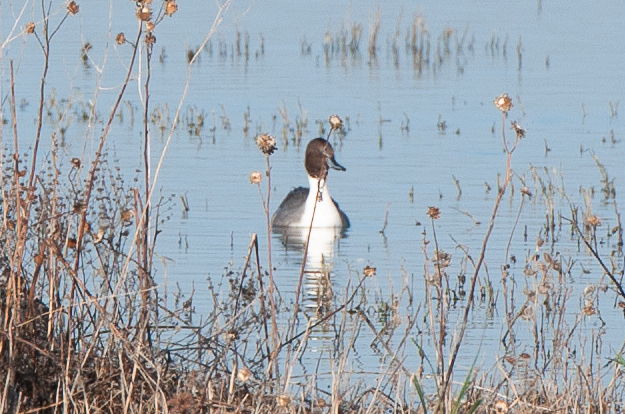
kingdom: Animalia
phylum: Chordata
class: Aves
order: Anseriformes
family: Anatidae
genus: Anas
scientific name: Anas acuta
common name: Northern pintail
